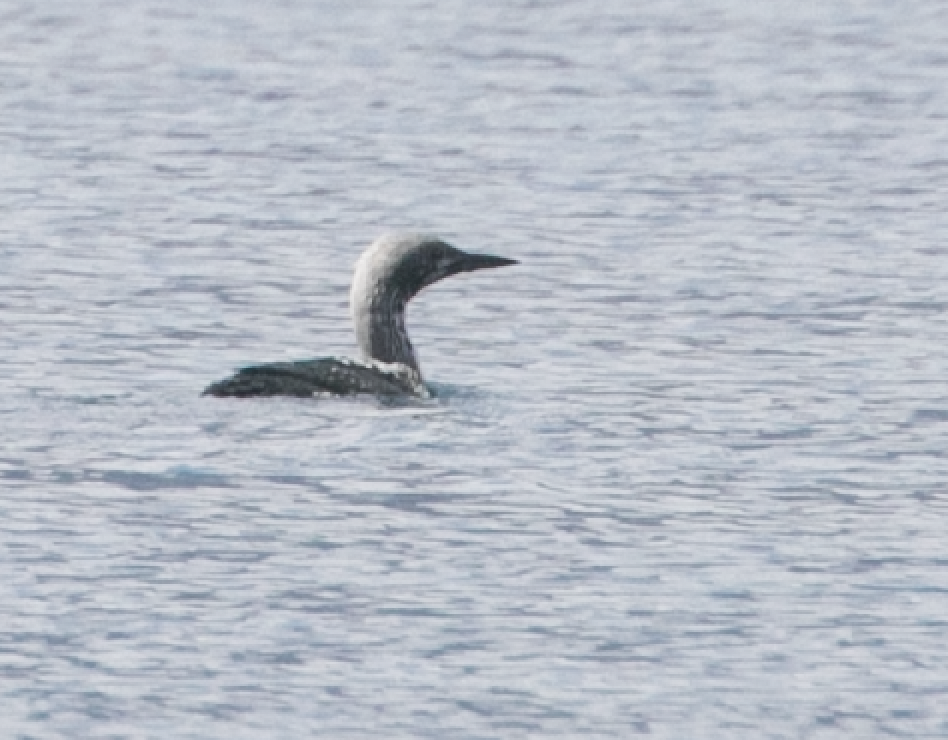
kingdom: Animalia
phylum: Chordata
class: Aves
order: Gaviiformes
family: Gaviidae
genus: Gavia
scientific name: Gavia arctica
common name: Black-throated loon
